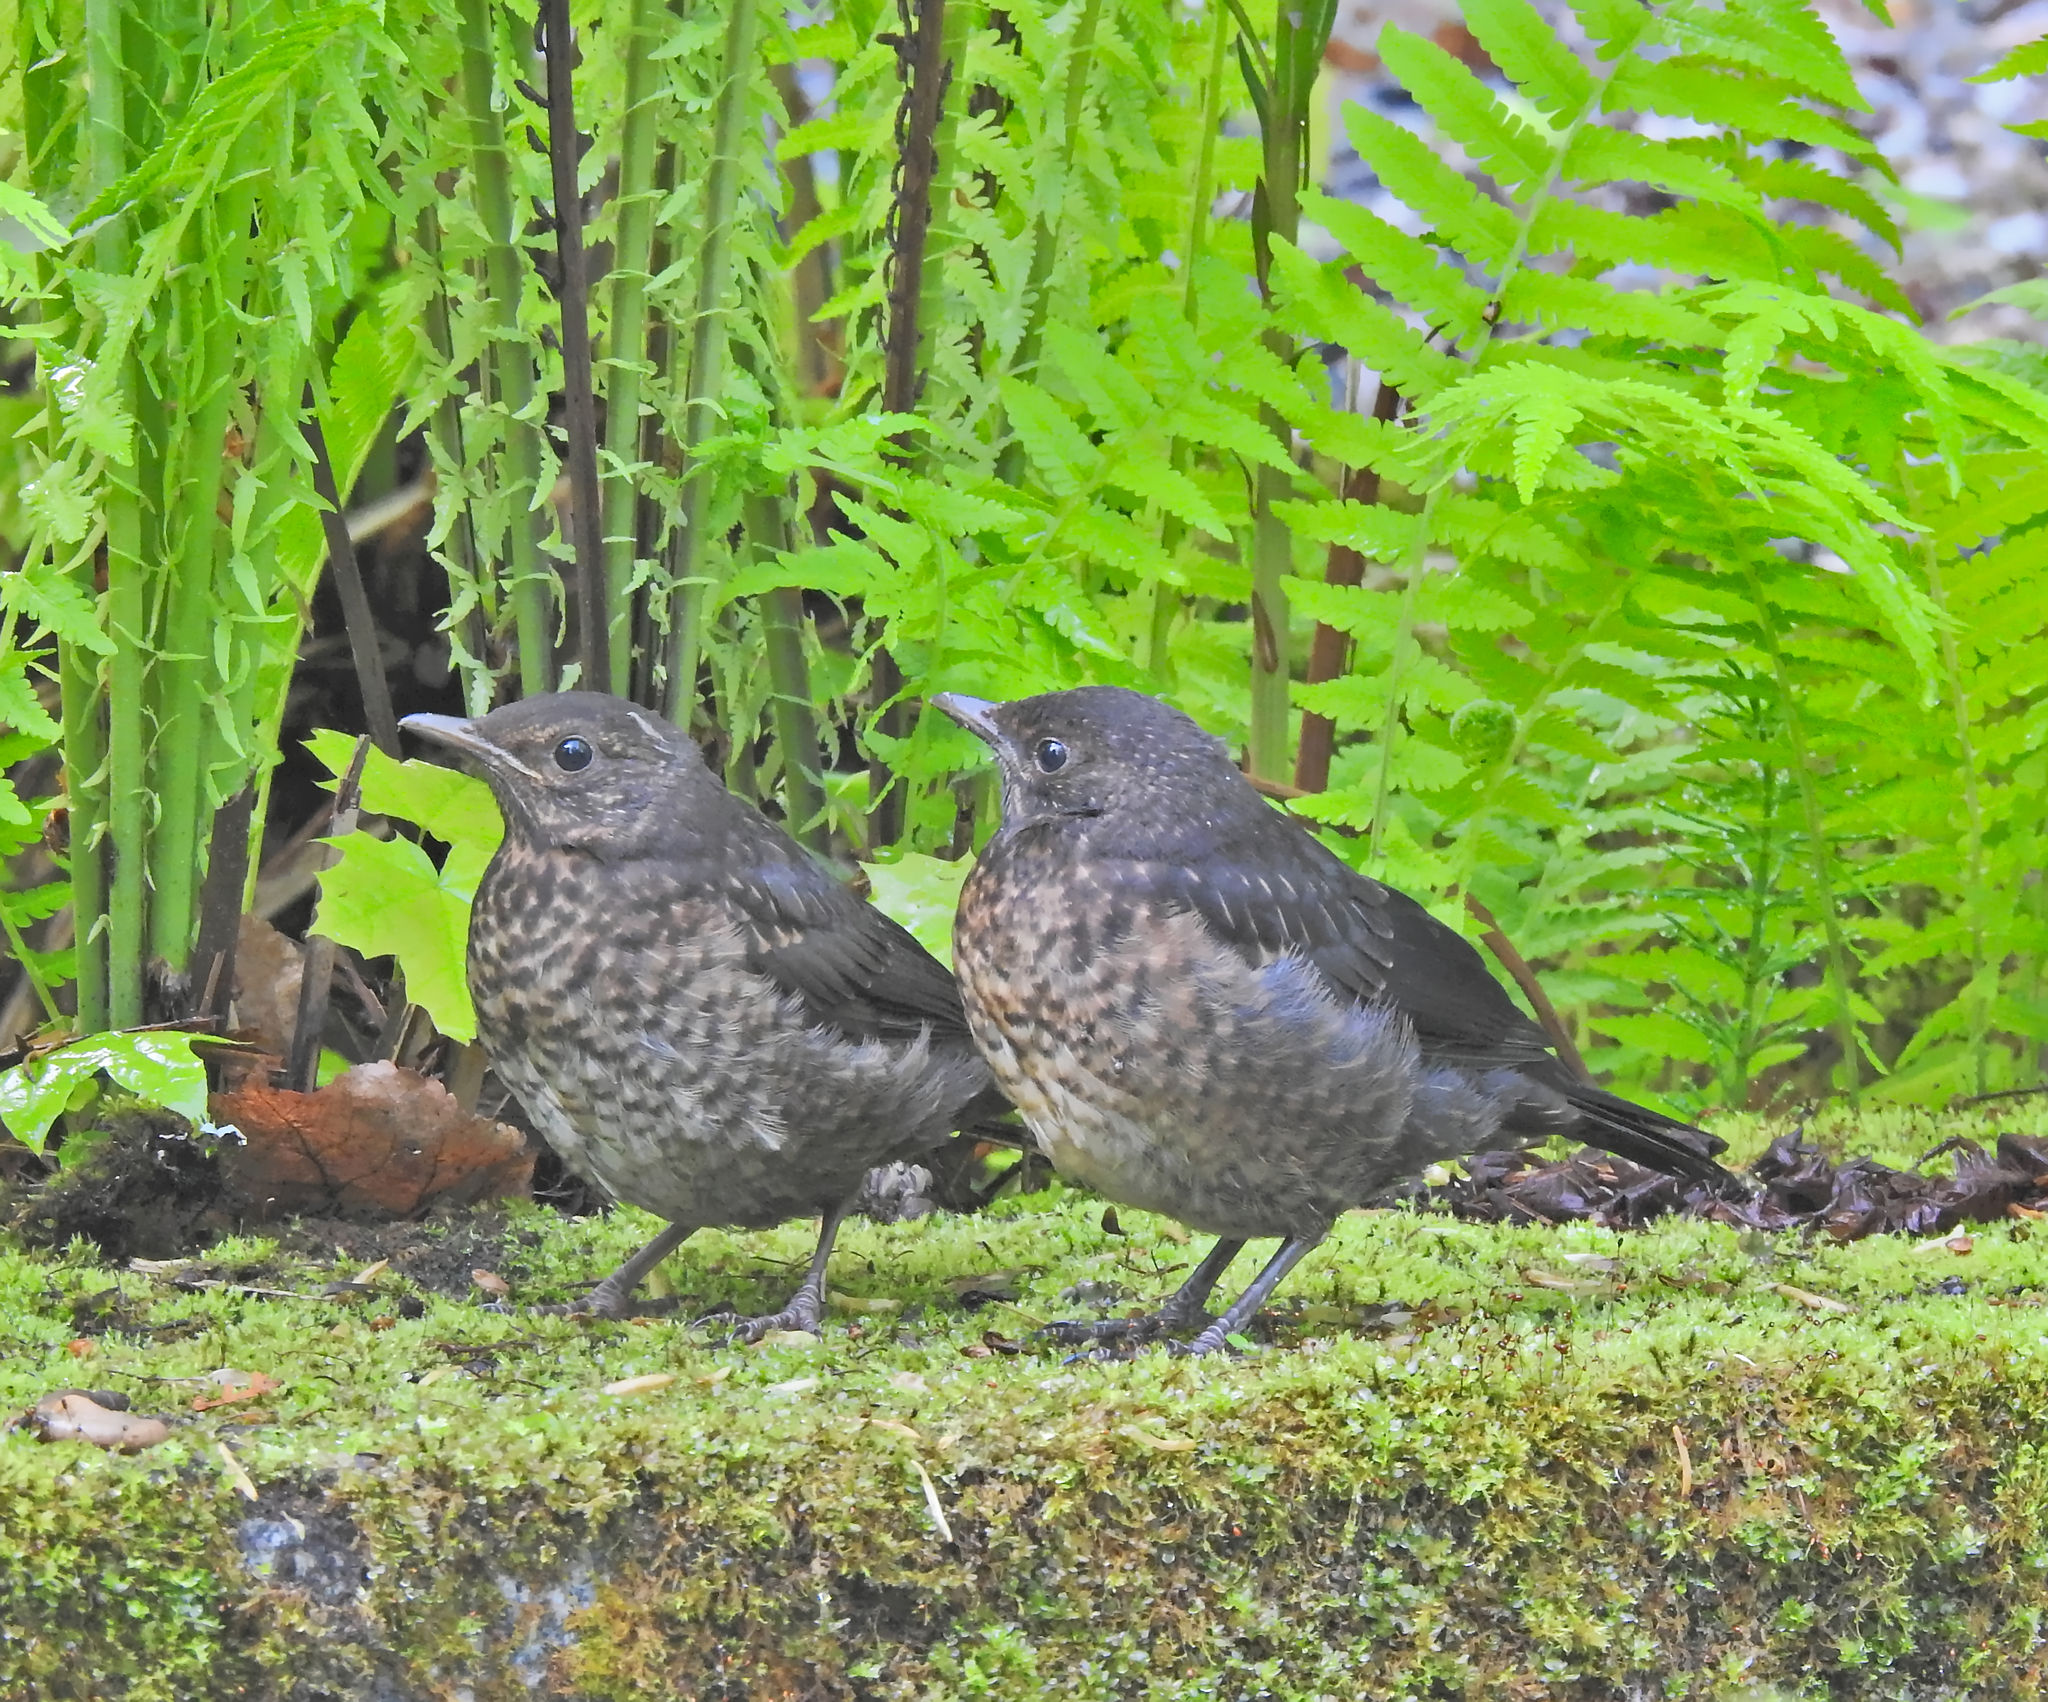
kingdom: Animalia
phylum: Chordata
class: Aves
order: Passeriformes
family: Turdidae
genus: Turdus
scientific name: Turdus merula
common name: Common blackbird
